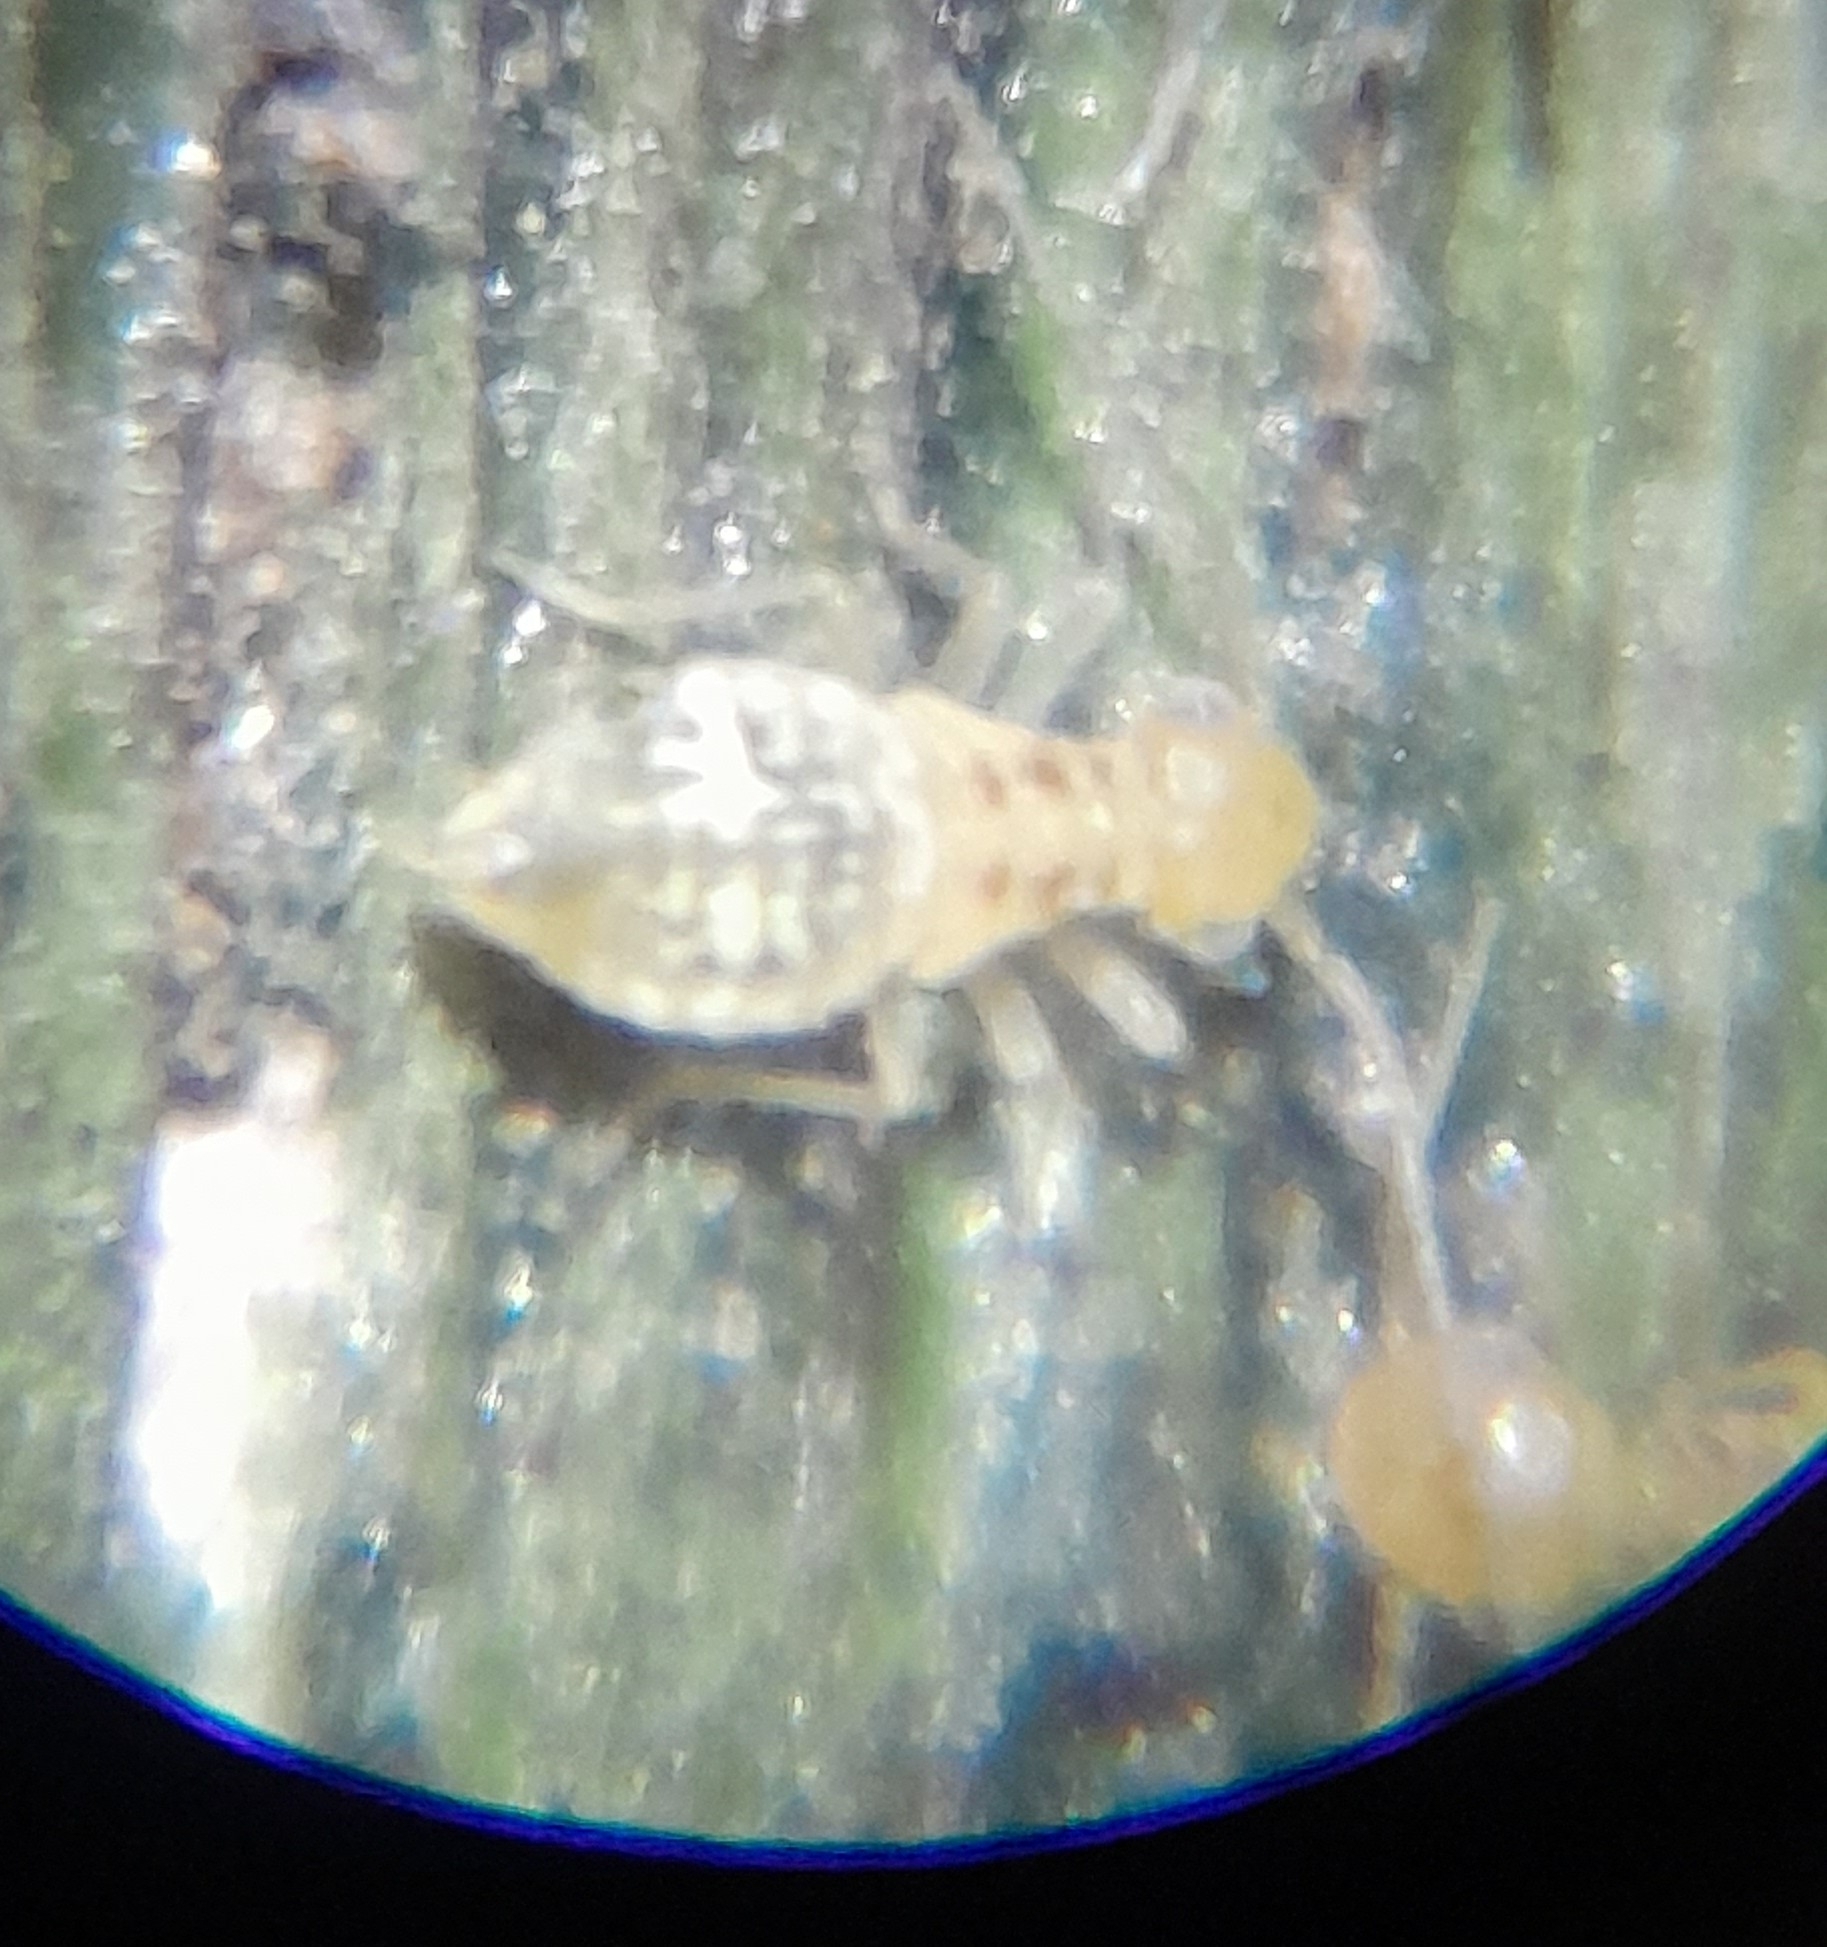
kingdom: Animalia
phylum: Arthropoda
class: Insecta
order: Psocodea
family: Stenopsocidae
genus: Graphopsocus
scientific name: Graphopsocus cruciatus
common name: Lizard bark louse
